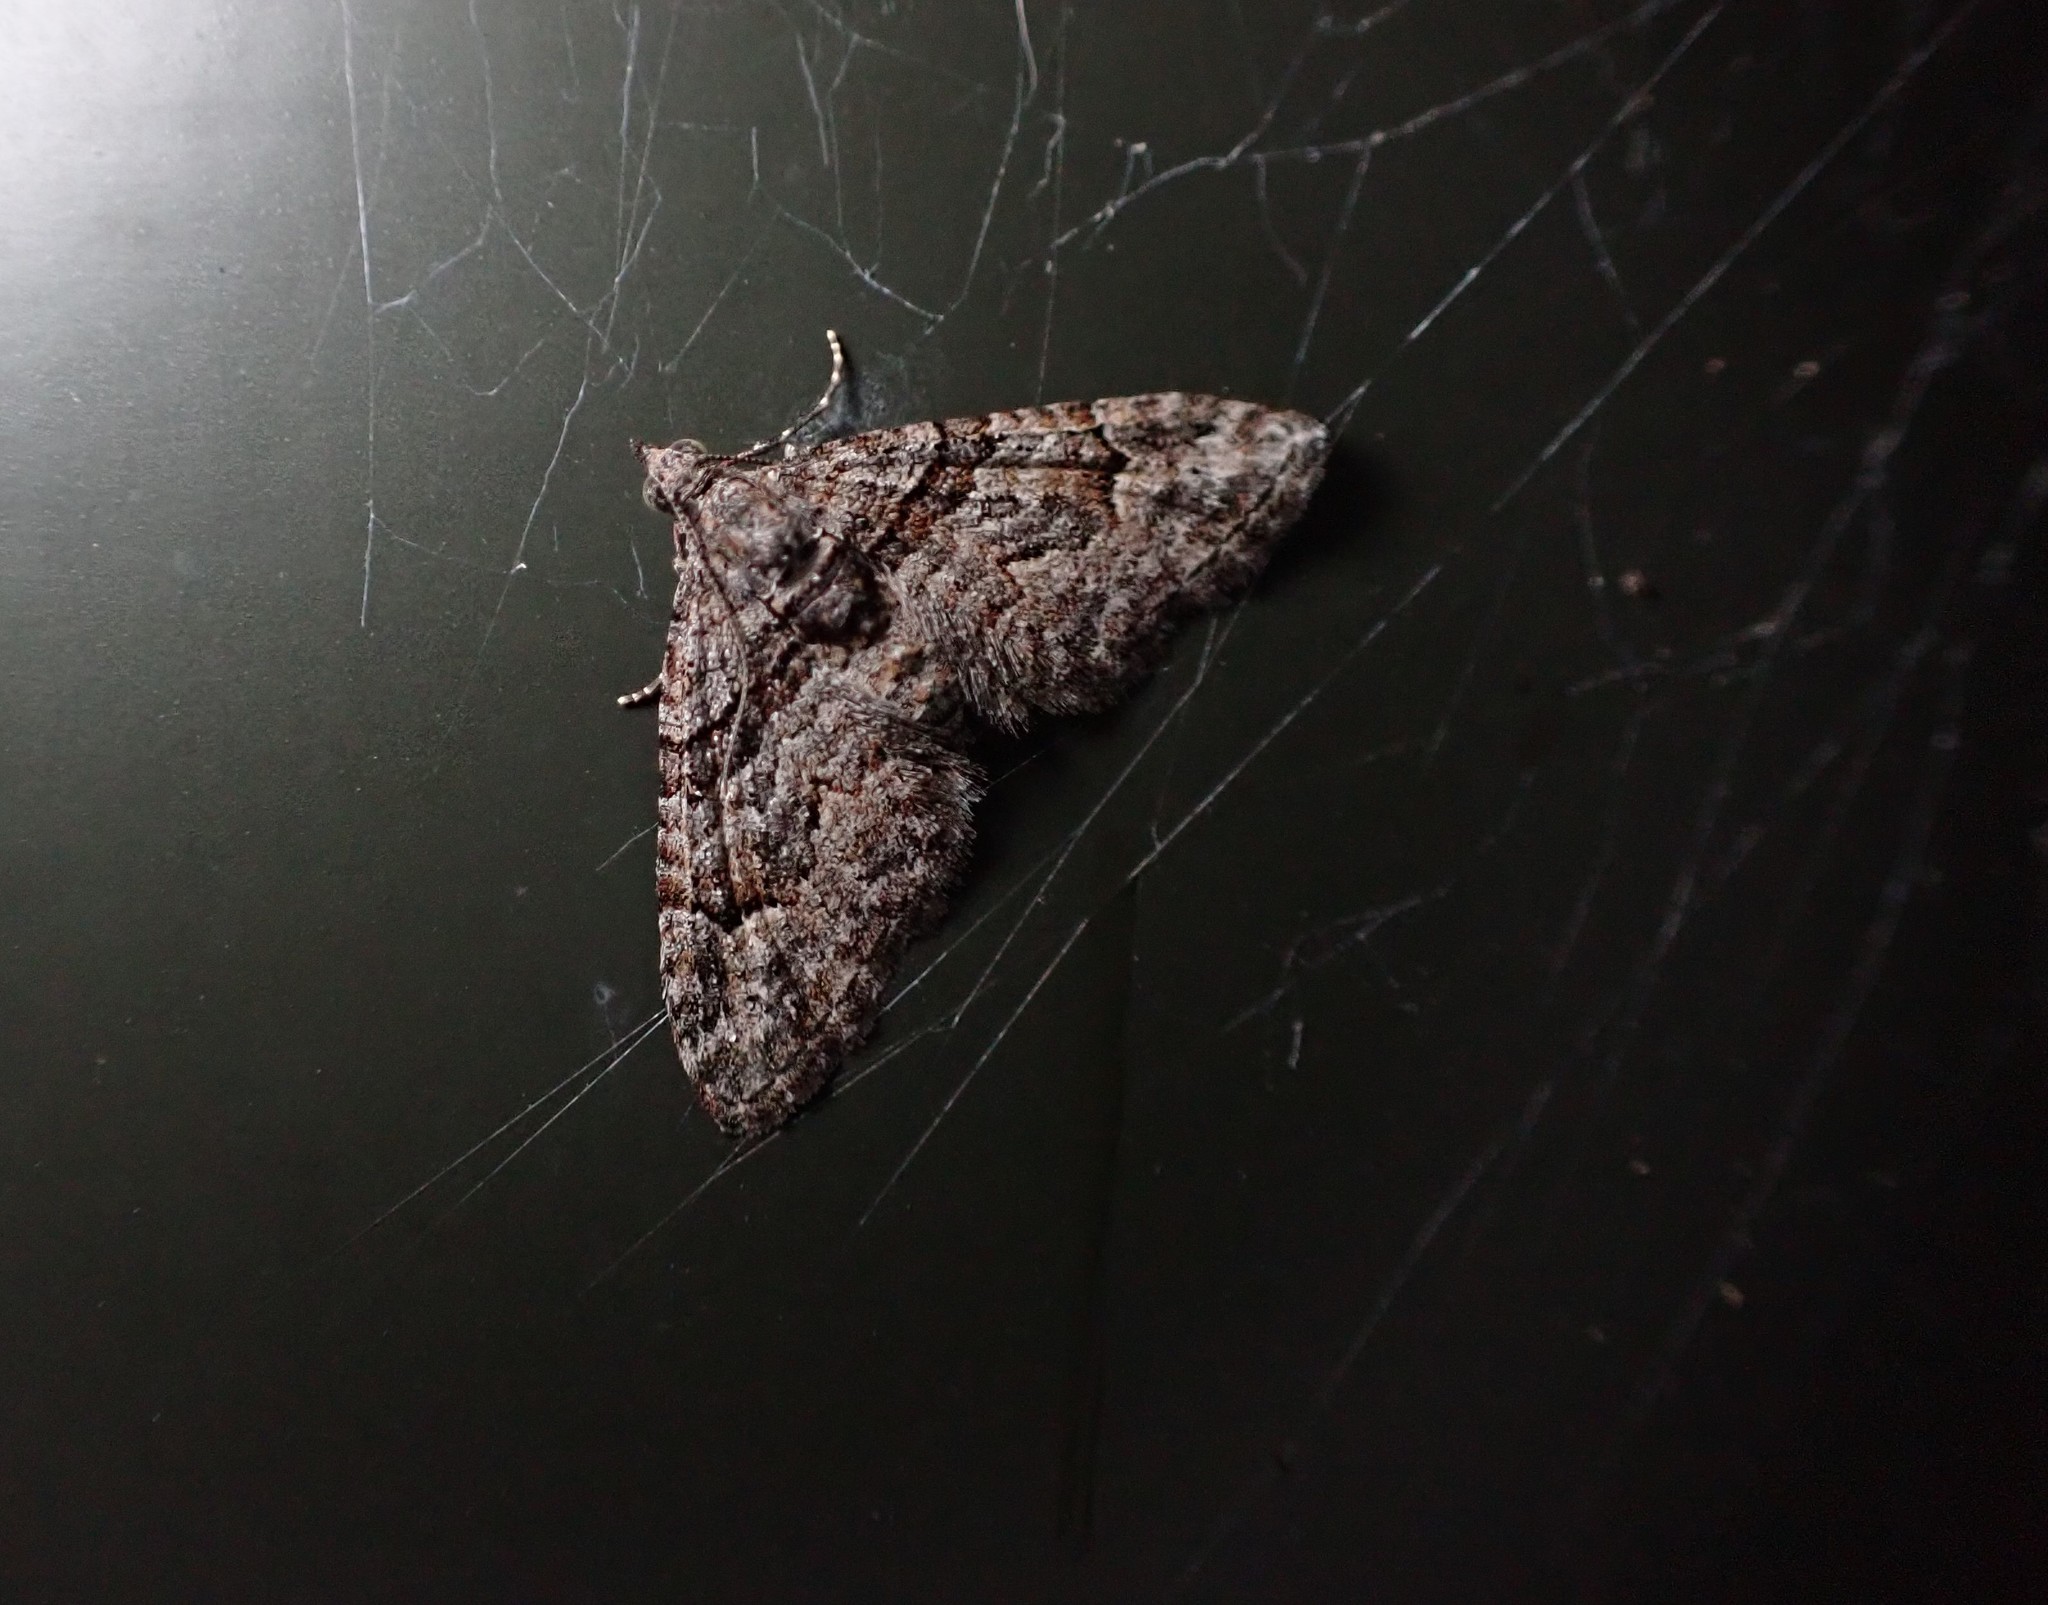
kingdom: Animalia
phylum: Arthropoda
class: Insecta
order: Lepidoptera
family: Geometridae
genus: Phrissogonus
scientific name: Phrissogonus laticostata
